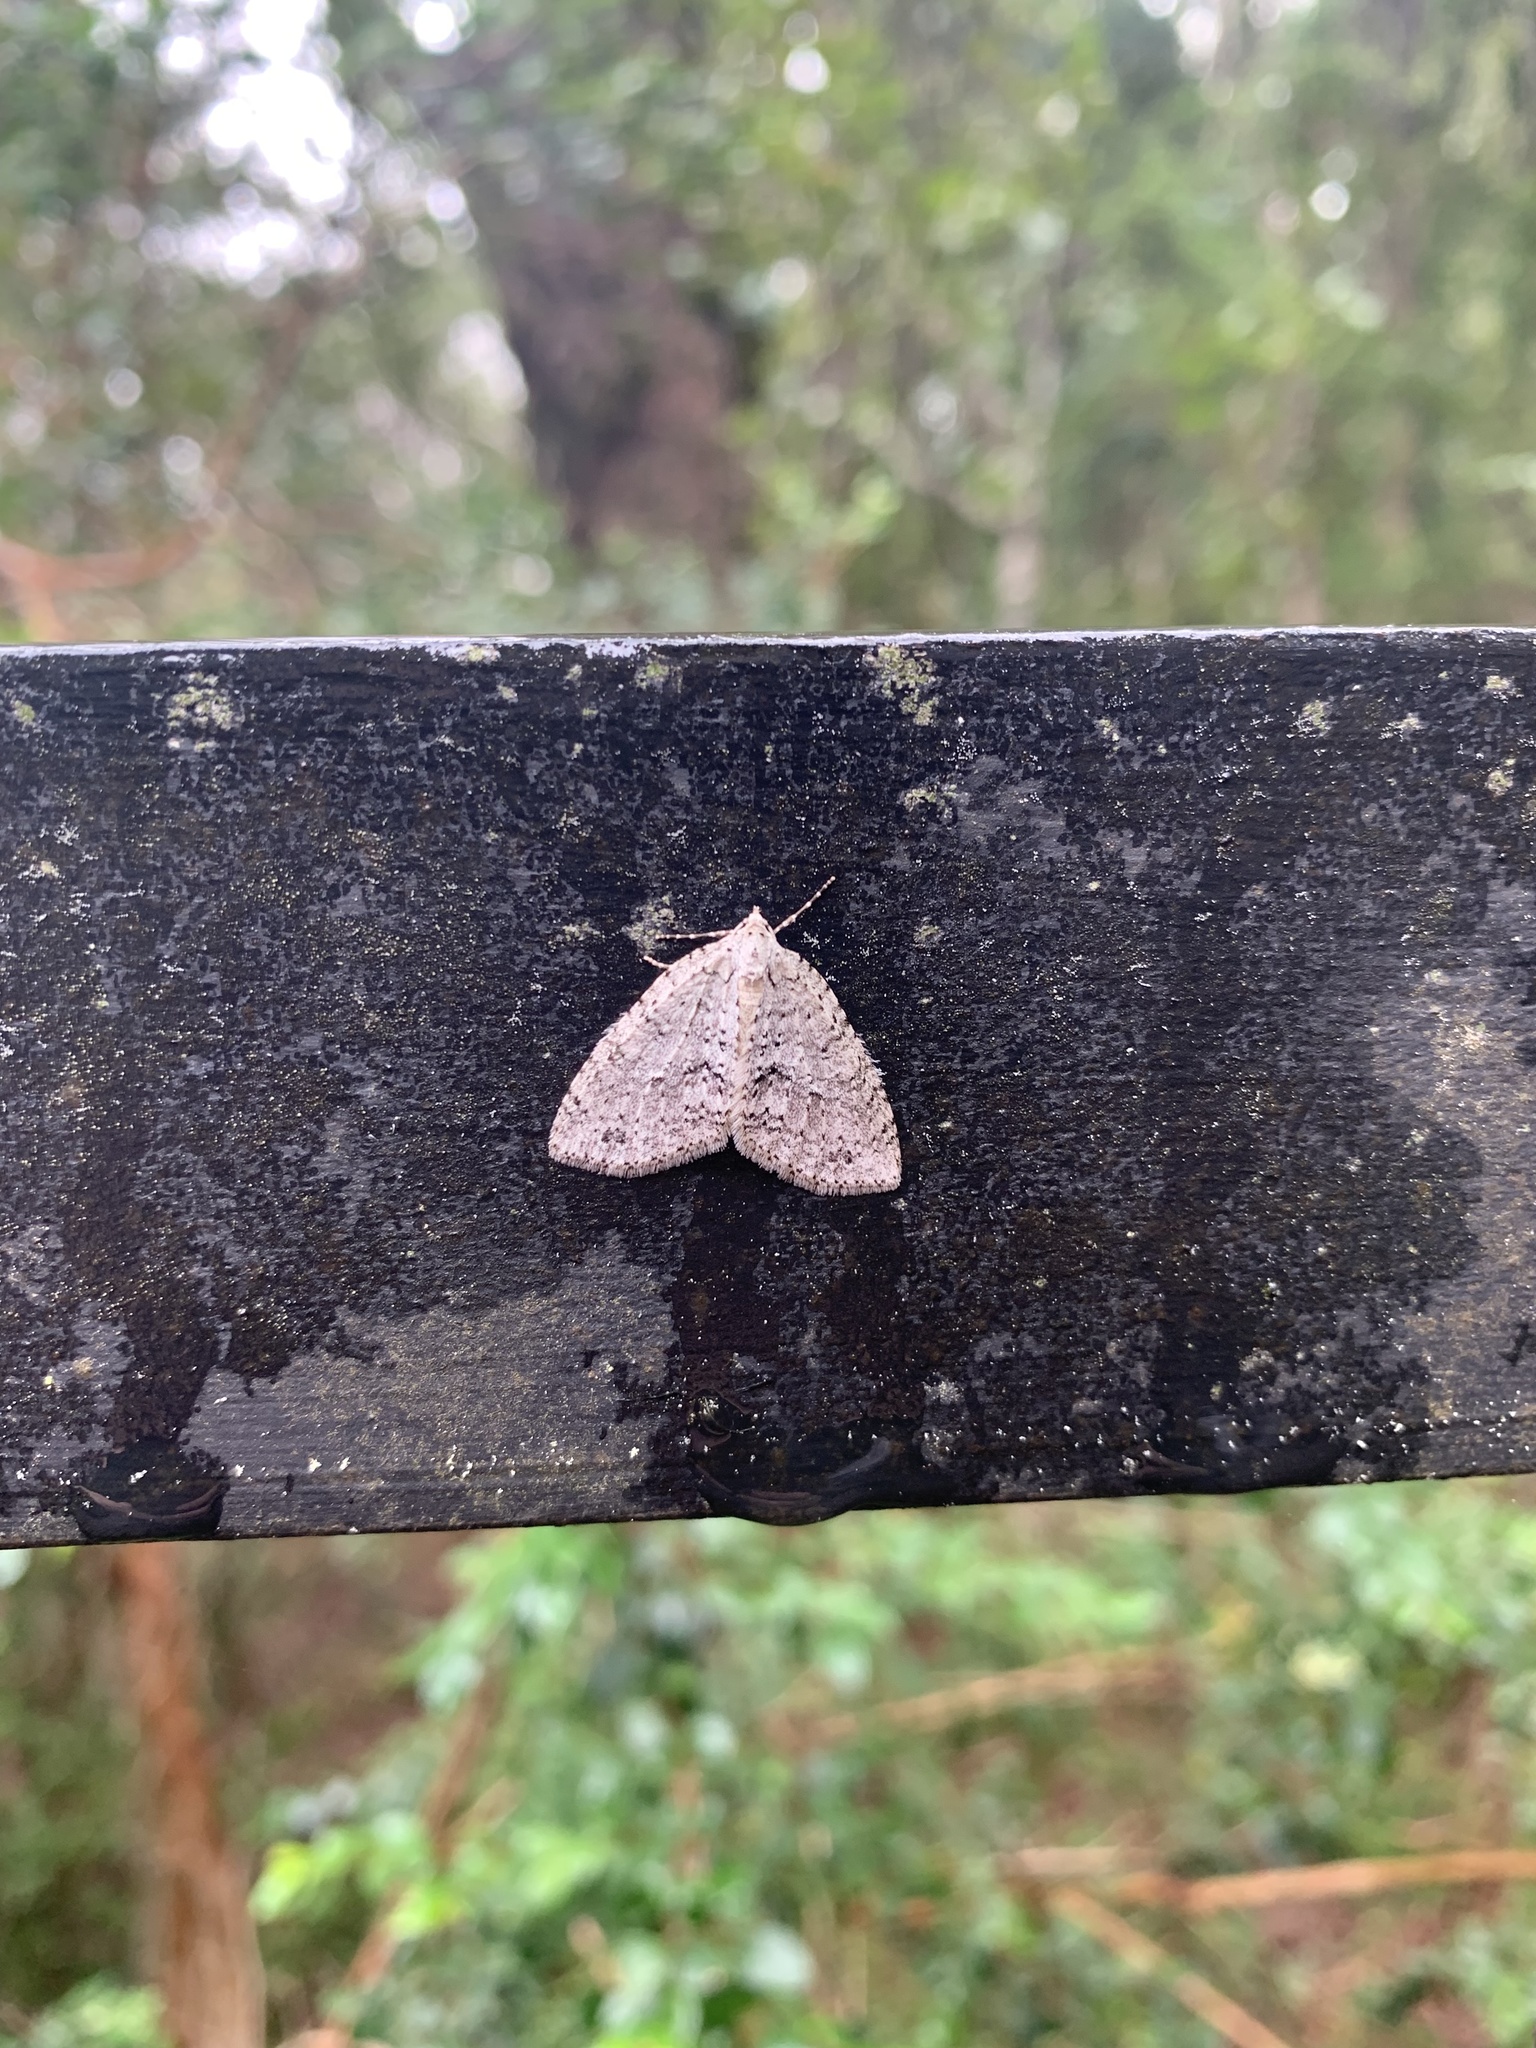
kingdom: Animalia
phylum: Arthropoda
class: Insecta
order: Lepidoptera
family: Geometridae
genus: Hoplosauris
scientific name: Hoplosauris
